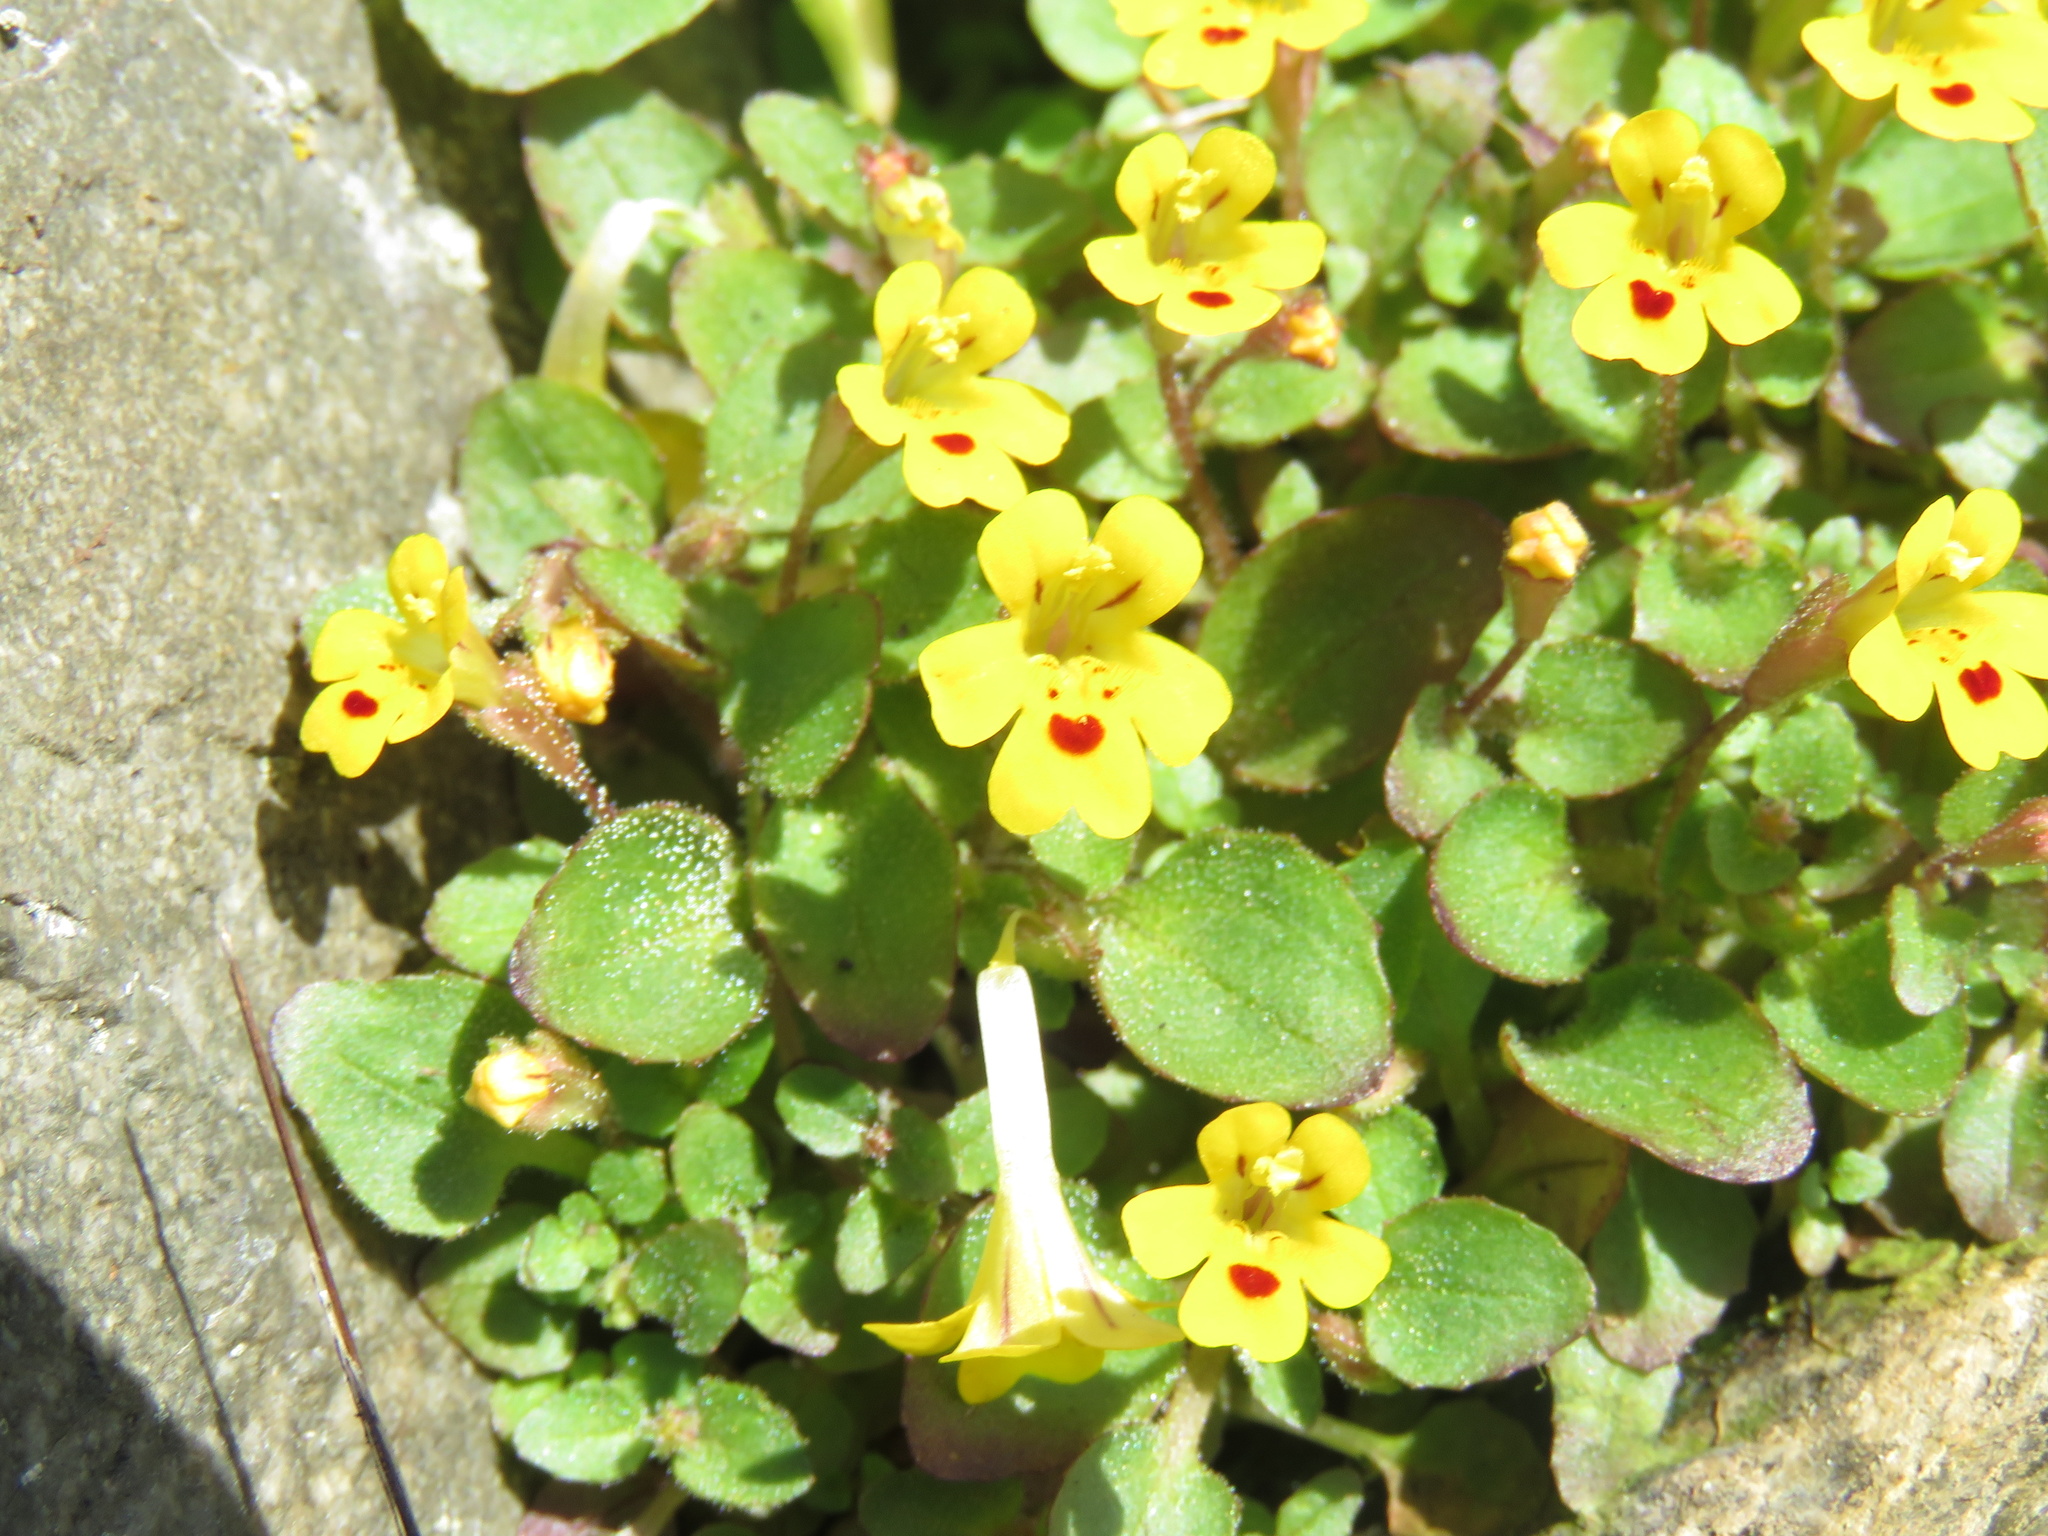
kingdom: Plantae
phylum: Tracheophyta
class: Magnoliopsida
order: Lamiales
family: Phrymaceae
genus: Erythranthe
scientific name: Erythranthe alsinoides
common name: Chickweed monkeyflower
